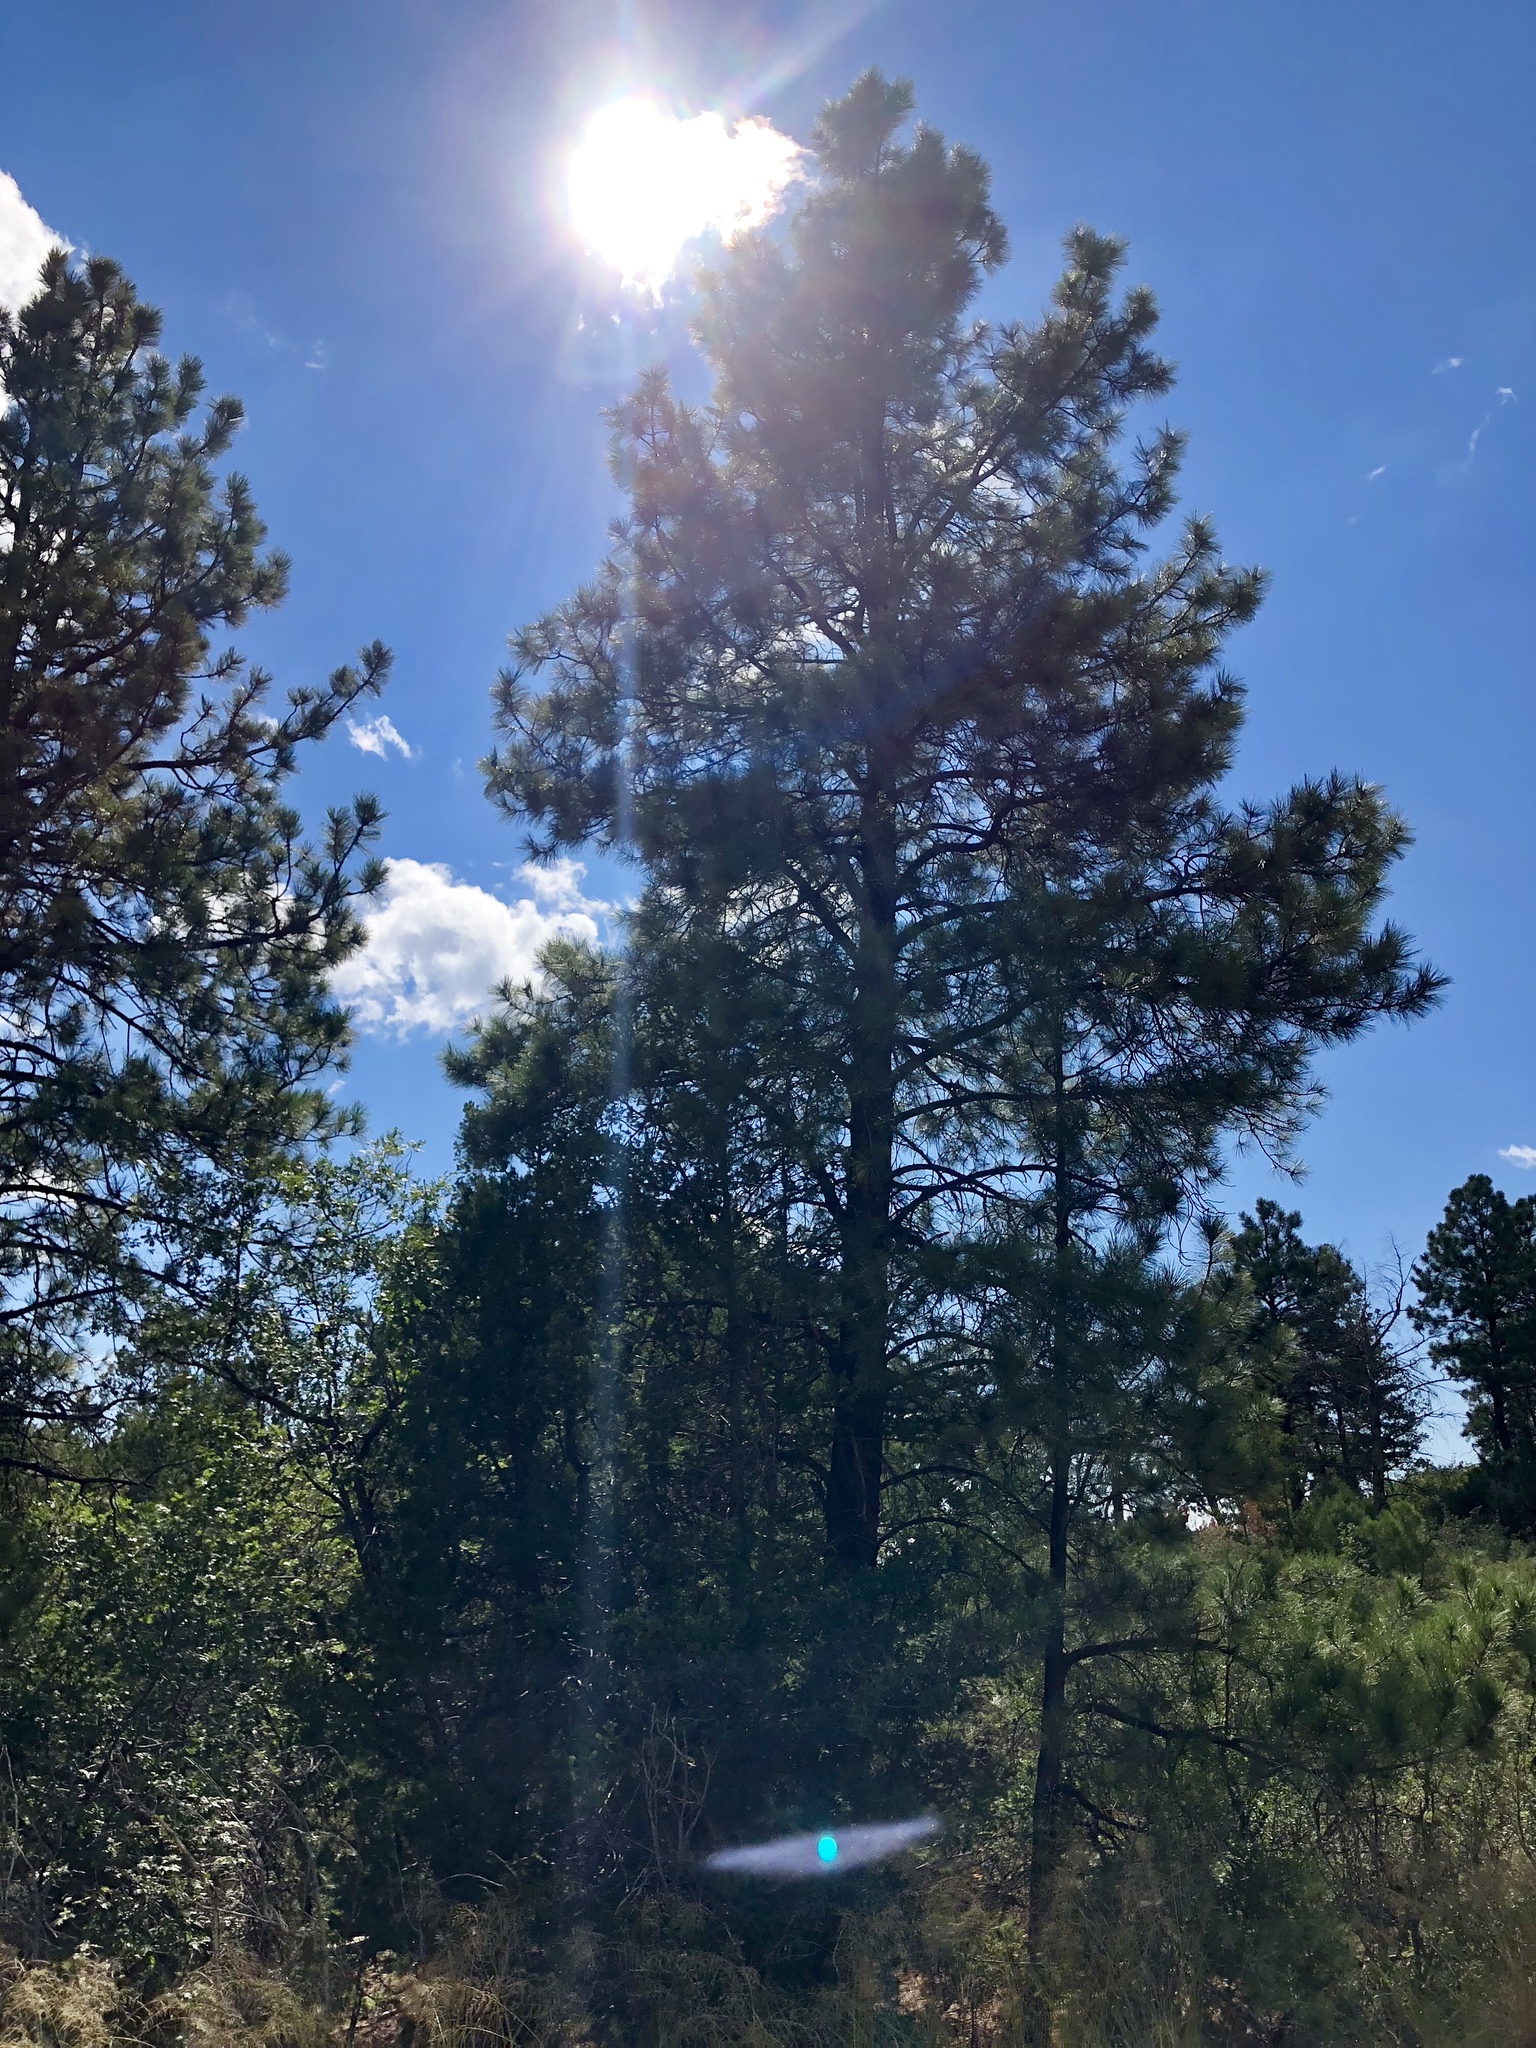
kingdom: Plantae
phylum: Tracheophyta
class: Pinopsida
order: Pinales
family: Pinaceae
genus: Pinus
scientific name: Pinus ponderosa
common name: Western yellow-pine
